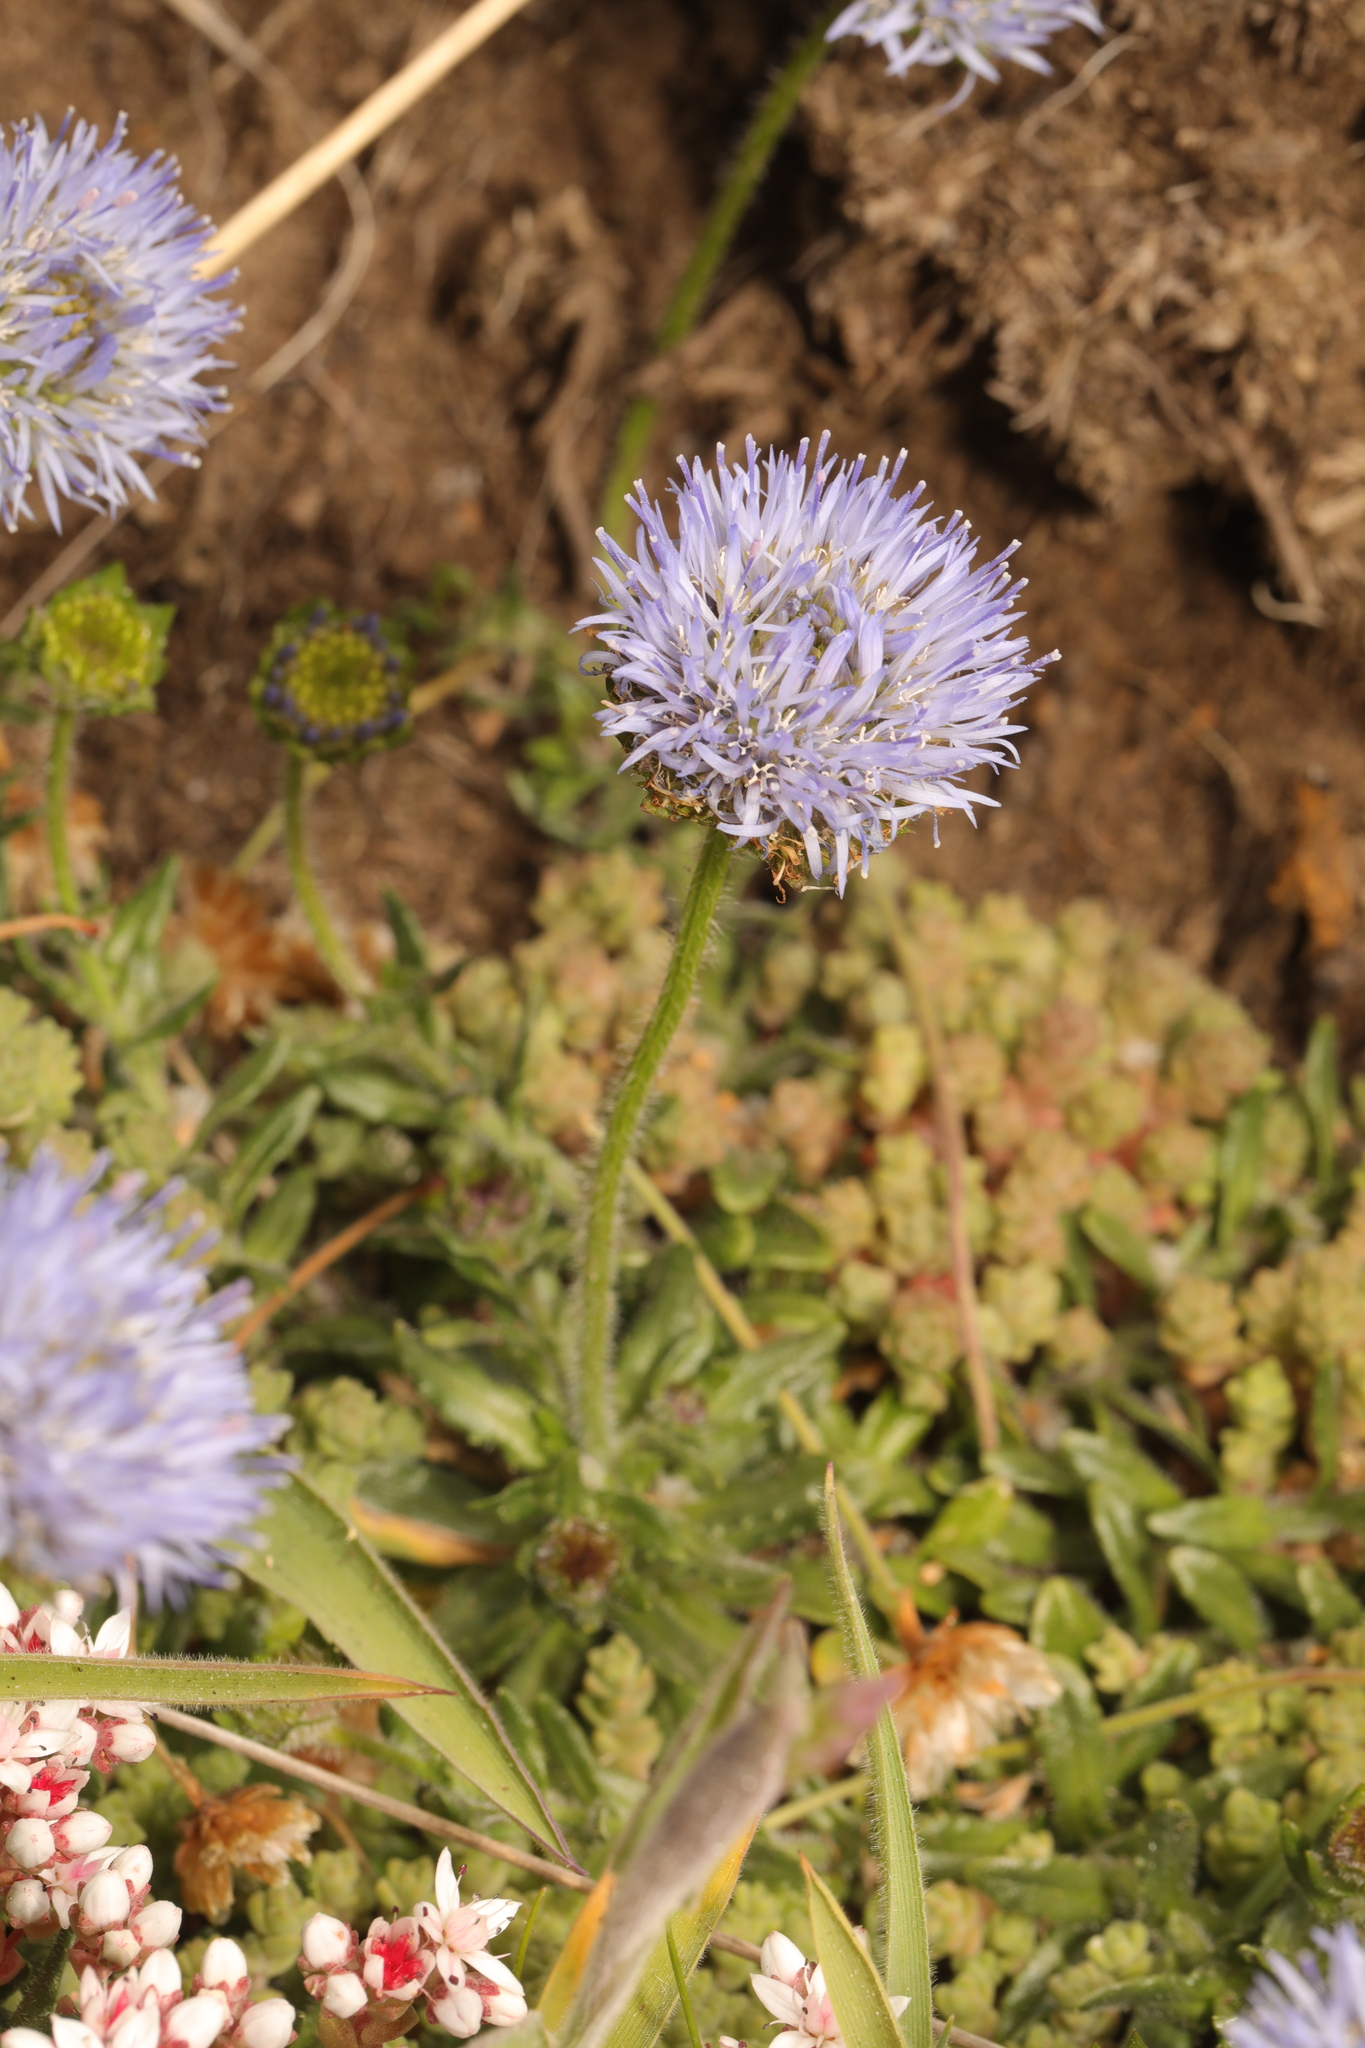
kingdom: Plantae
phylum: Tracheophyta
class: Magnoliopsida
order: Asterales
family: Campanulaceae
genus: Jasione
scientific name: Jasione montana
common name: Sheep's-bit
